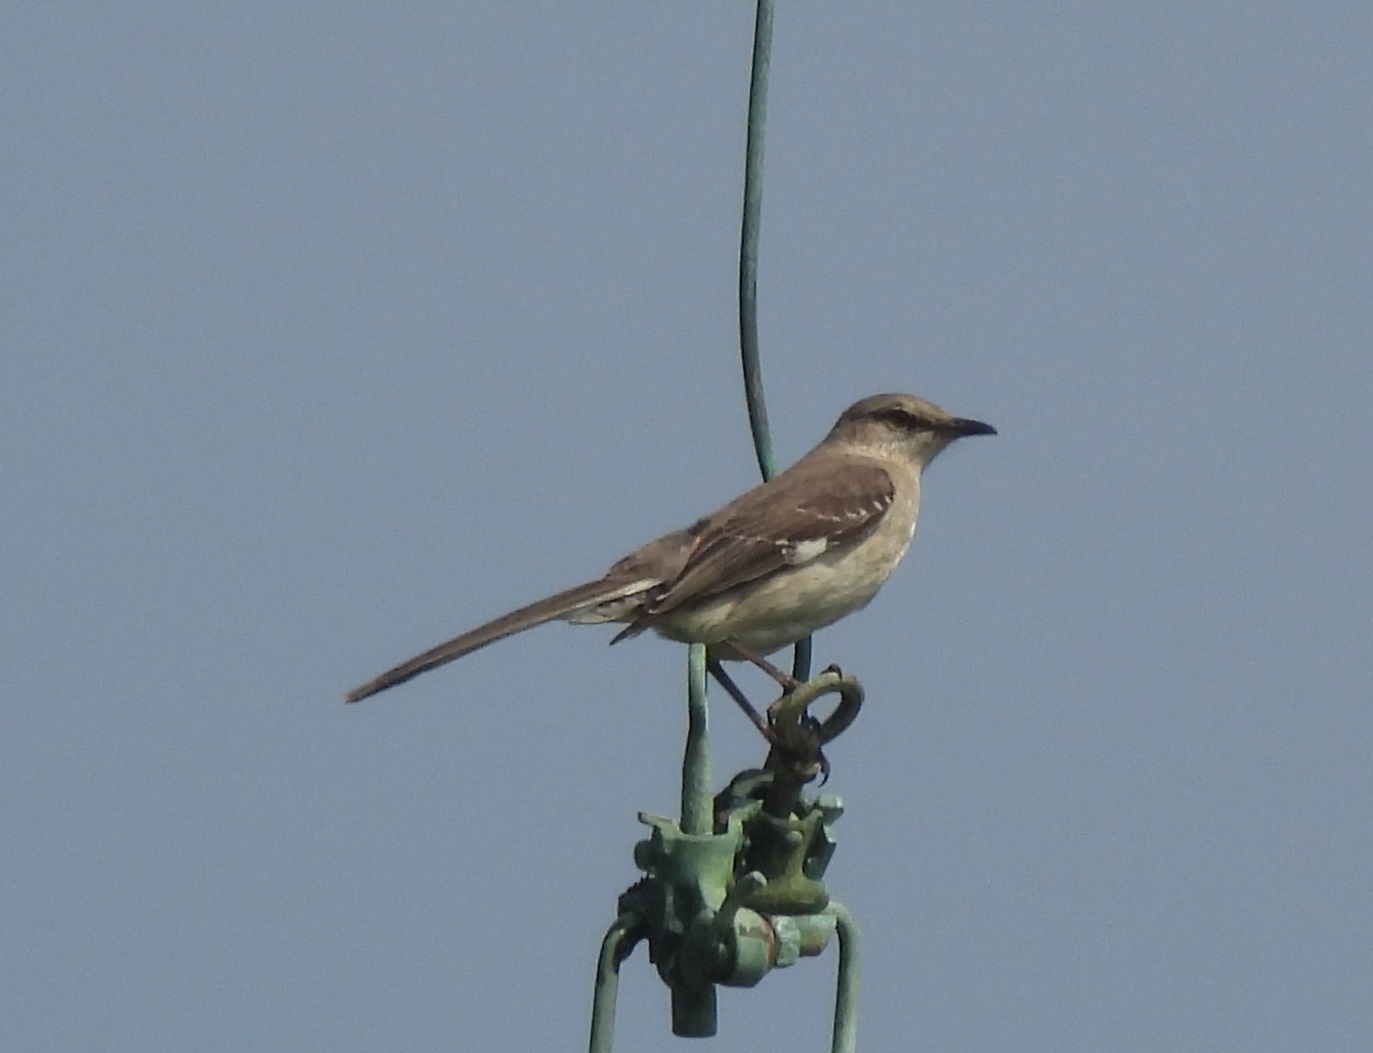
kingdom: Animalia
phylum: Chordata
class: Aves
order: Passeriformes
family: Mimidae
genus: Mimus
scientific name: Mimus polyglottos
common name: Northern mockingbird
